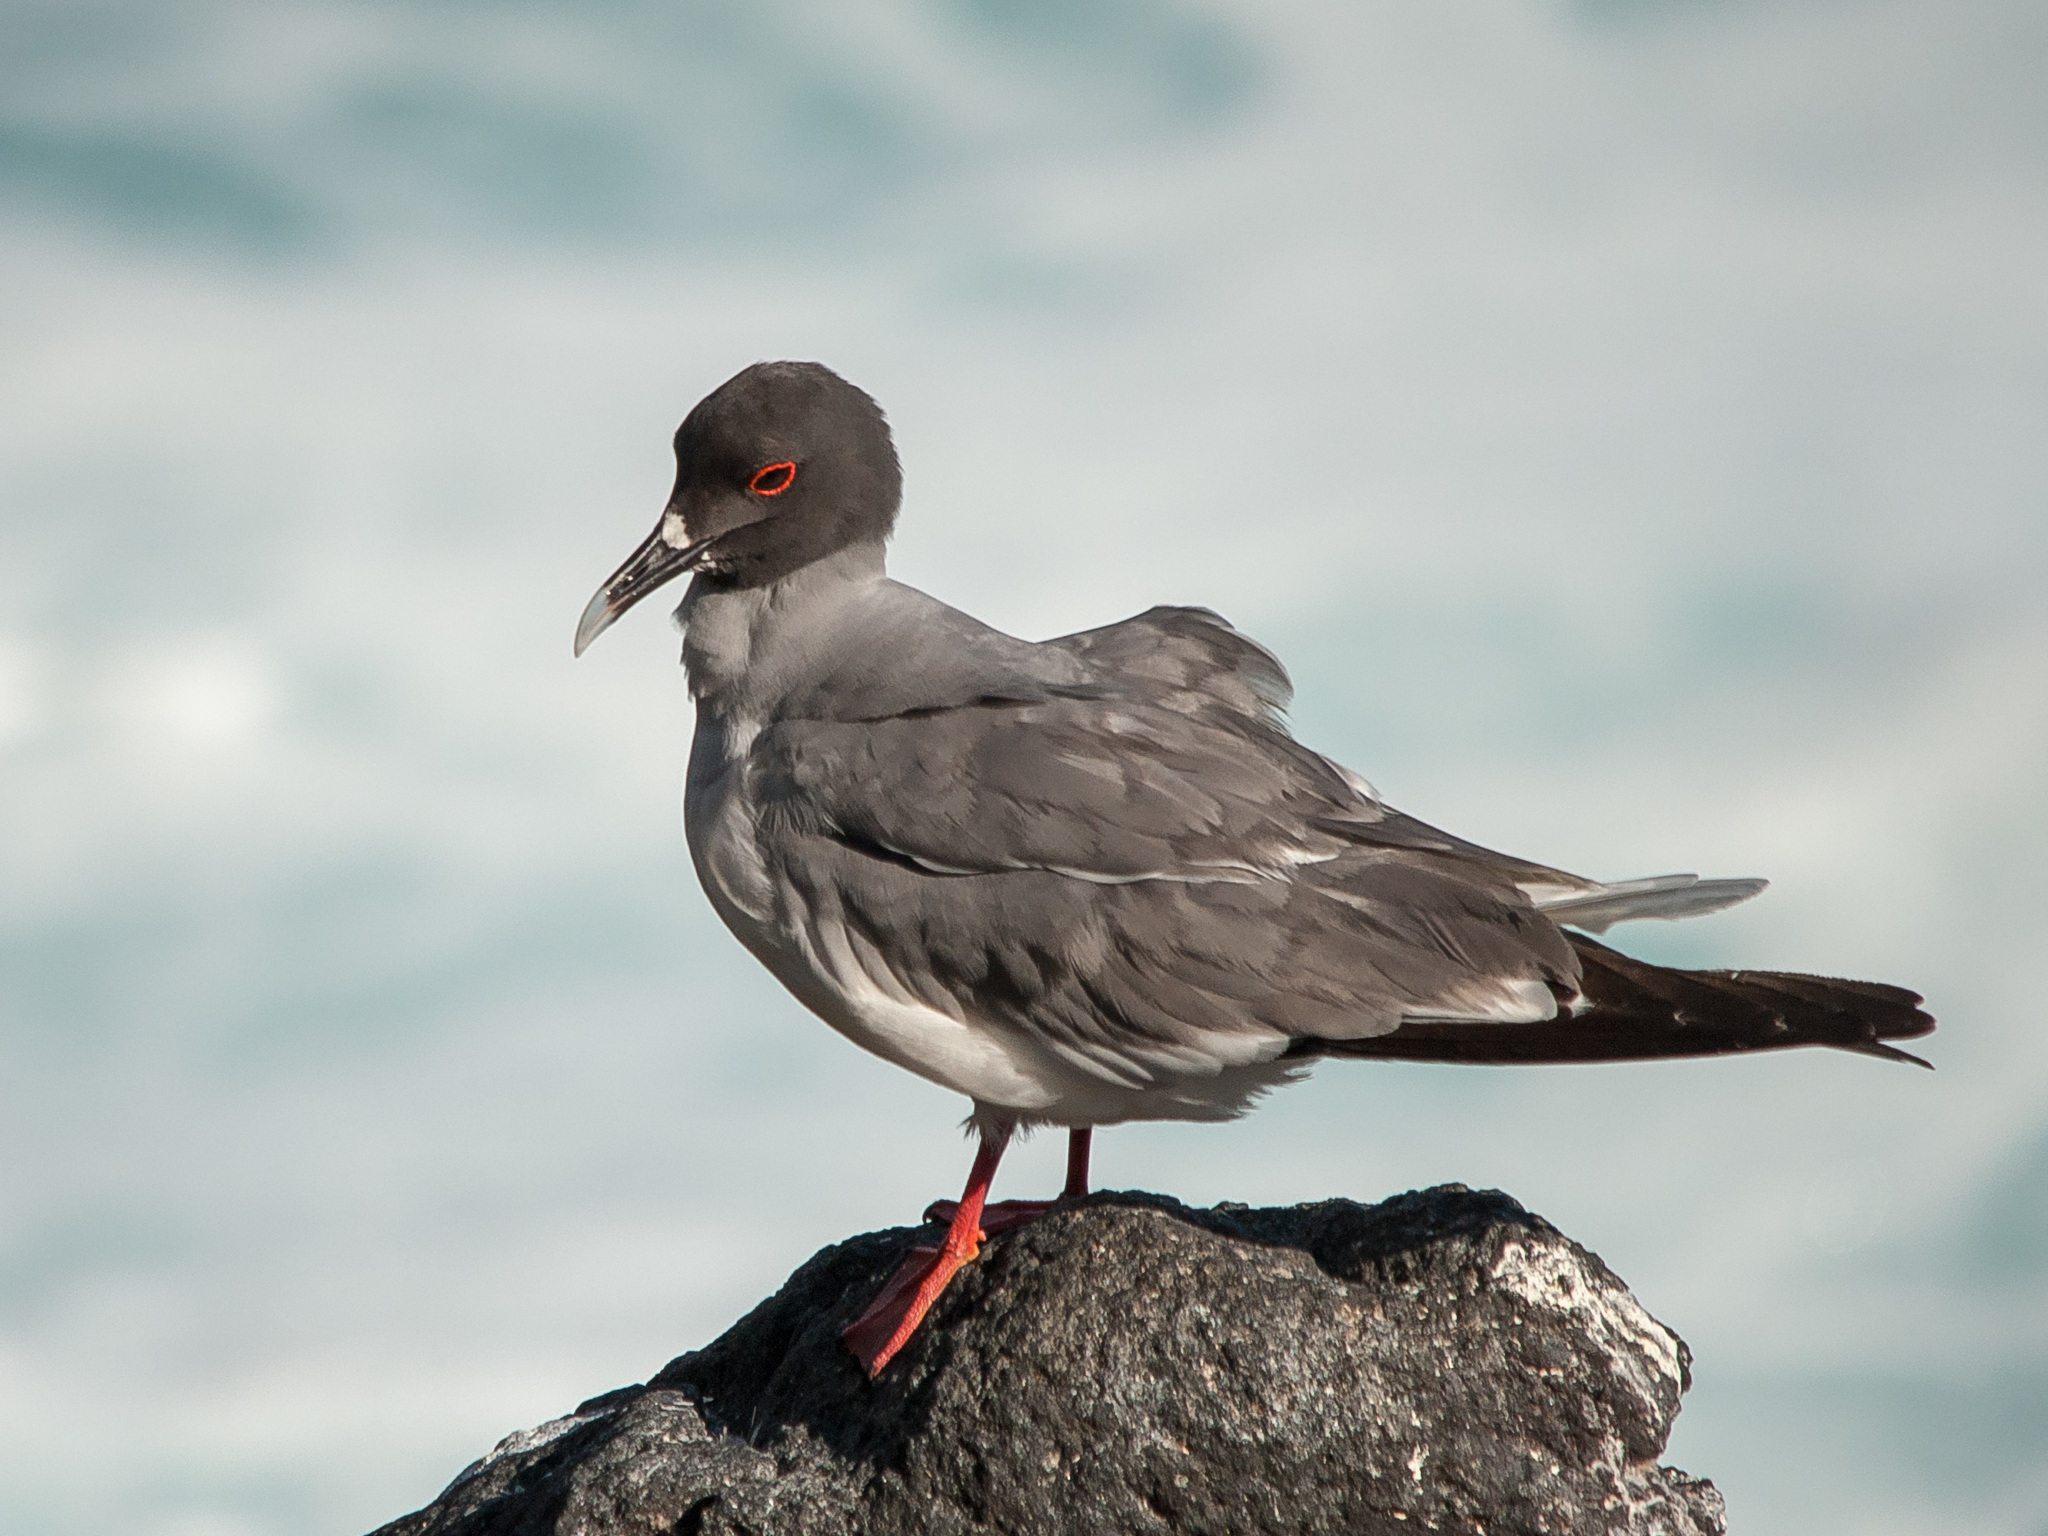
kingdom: Animalia
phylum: Chordata
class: Aves
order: Charadriiformes
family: Laridae
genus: Creagrus
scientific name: Creagrus furcatus
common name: Swallow-tailed gull
